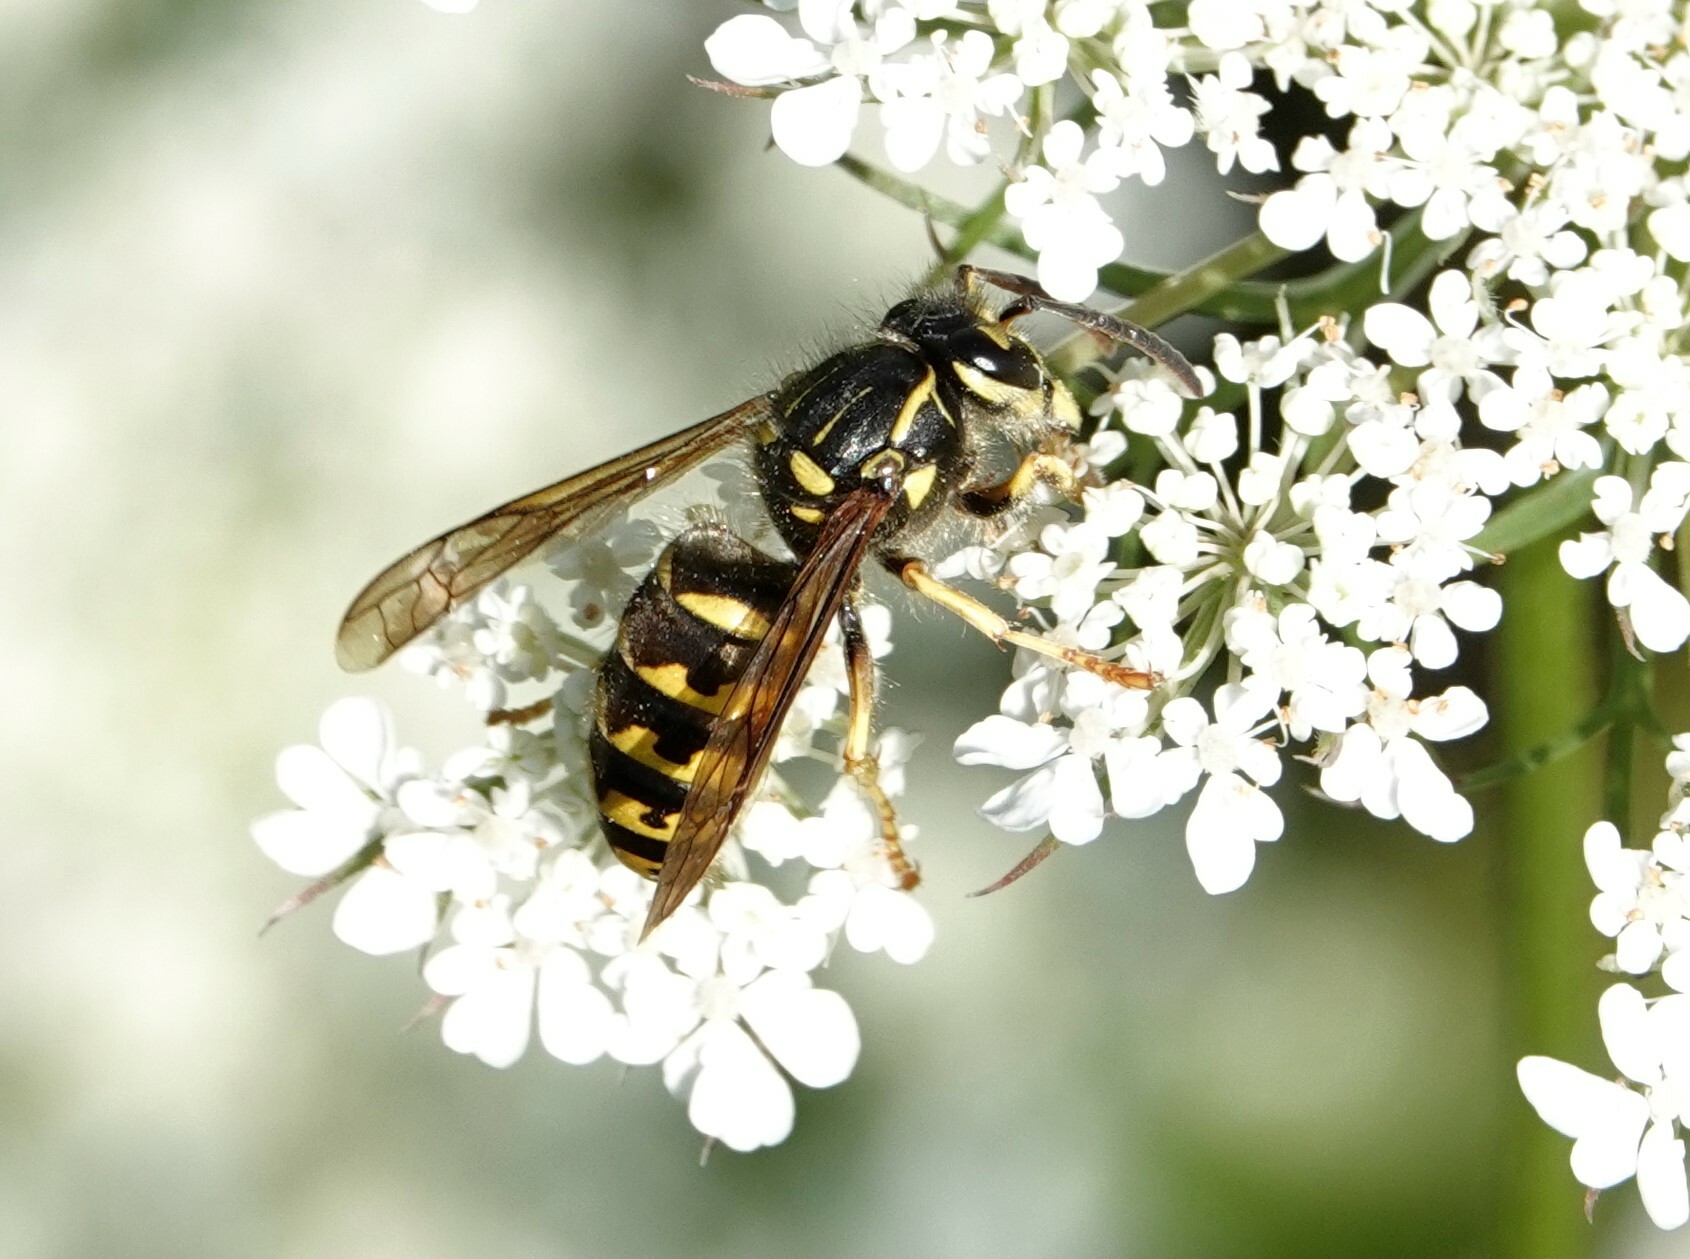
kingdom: Animalia
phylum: Arthropoda
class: Insecta
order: Hymenoptera
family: Vespidae
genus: Dolichovespula
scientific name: Dolichovespula arenaria
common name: Aerial yellowjacket
